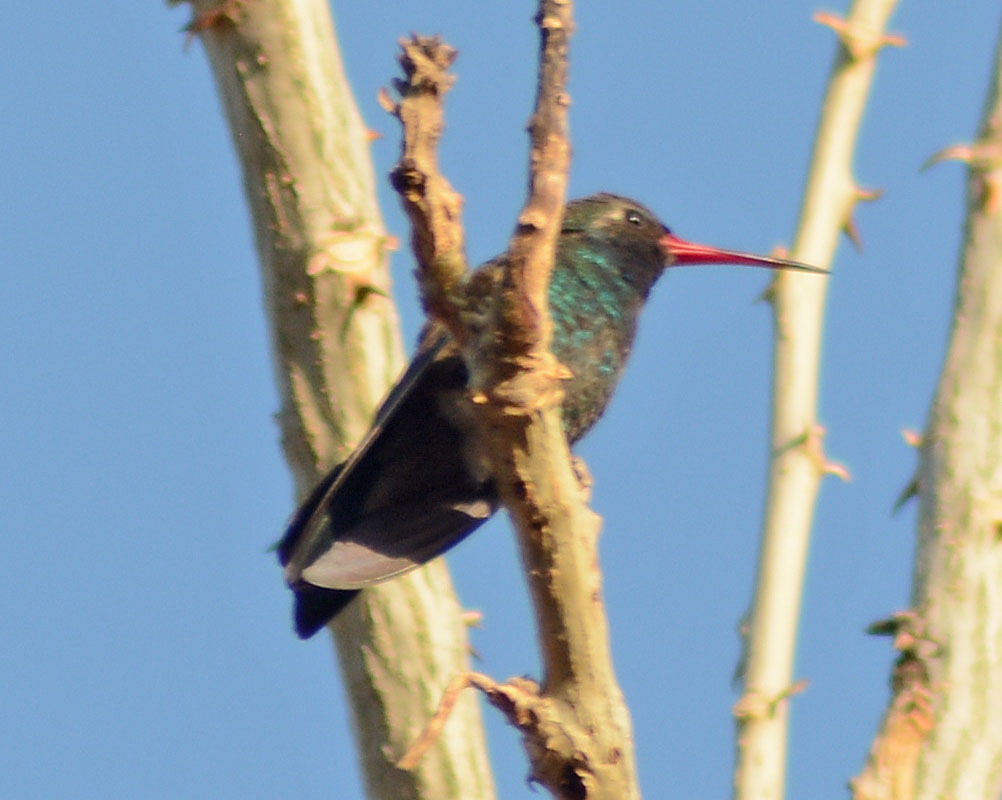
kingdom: Animalia
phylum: Chordata
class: Aves
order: Apodiformes
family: Trochilidae
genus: Cynanthus
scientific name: Cynanthus latirostris
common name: Broad-billed hummingbird
